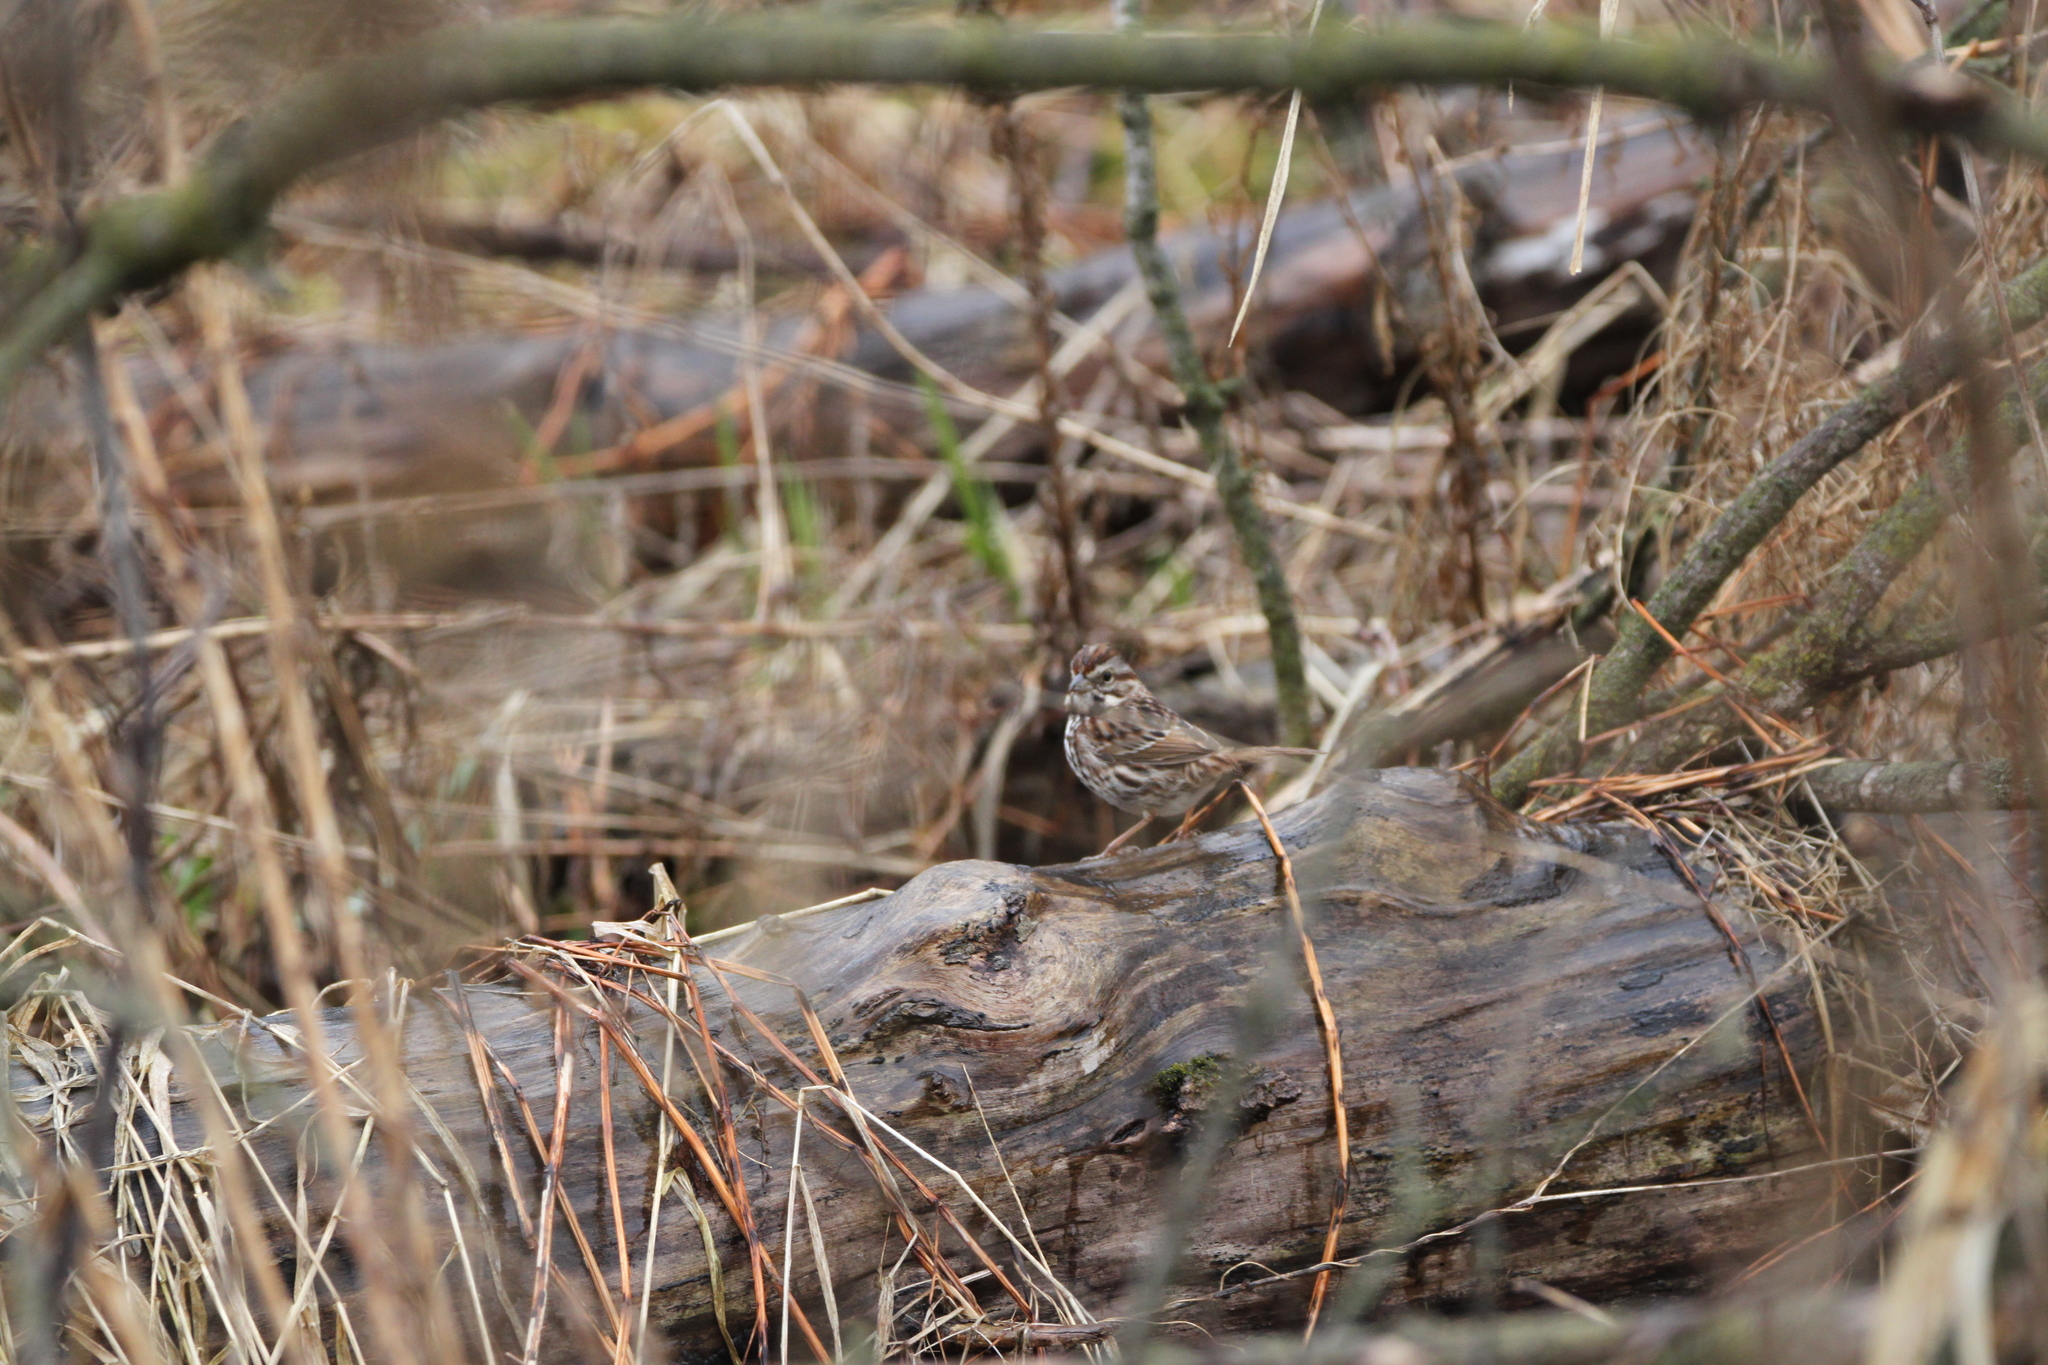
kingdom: Animalia
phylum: Chordata
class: Aves
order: Passeriformes
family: Passerellidae
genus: Melospiza
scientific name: Melospiza melodia
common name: Song sparrow
